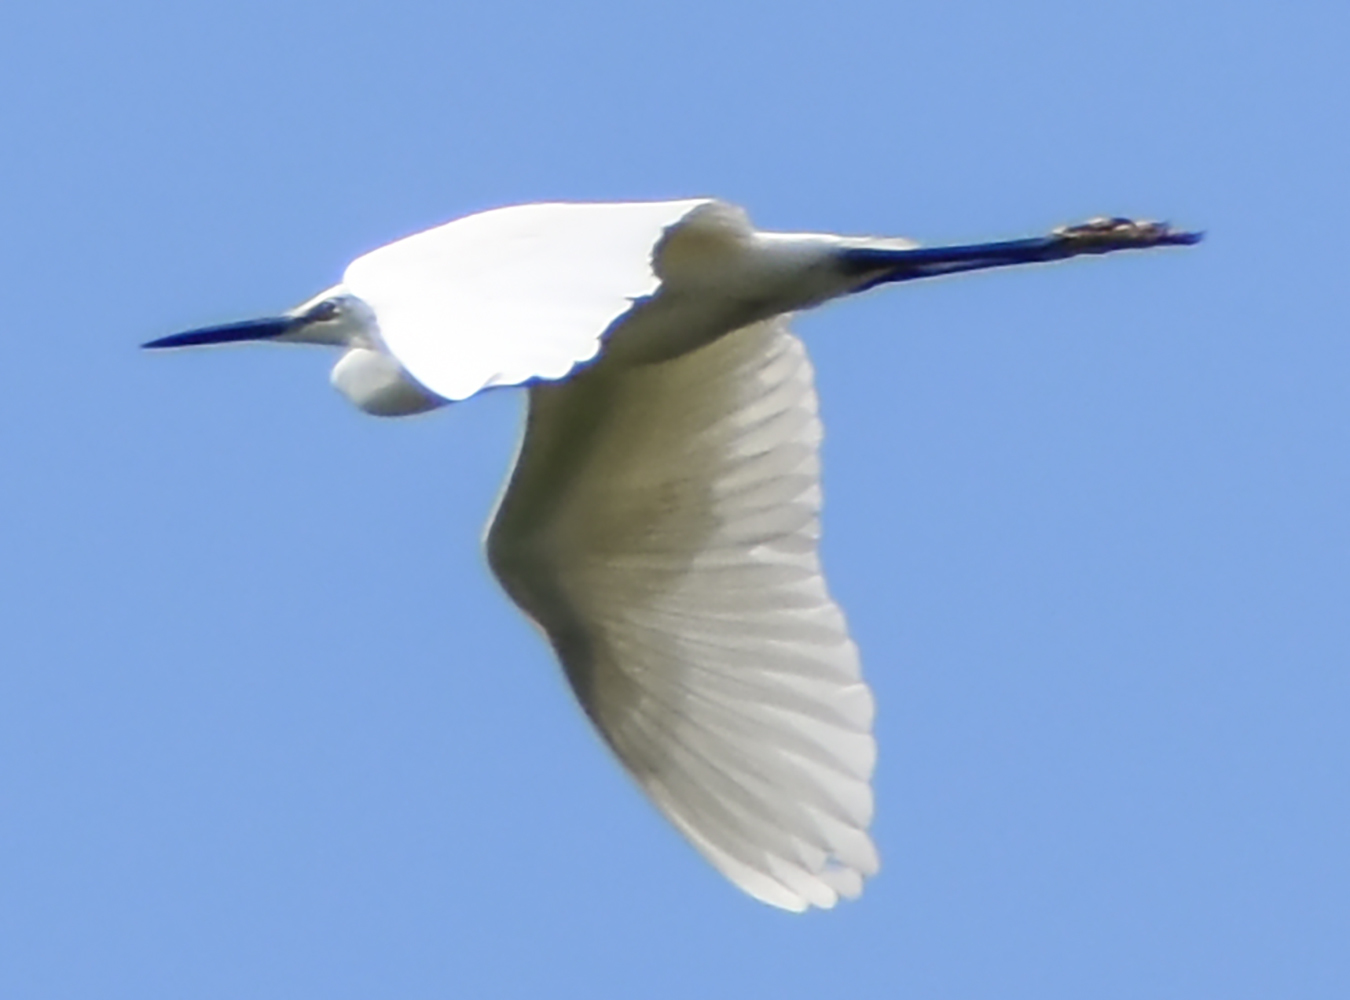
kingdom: Animalia
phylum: Chordata
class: Aves
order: Pelecaniformes
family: Ardeidae
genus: Egretta
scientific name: Egretta garzetta
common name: Little egret
